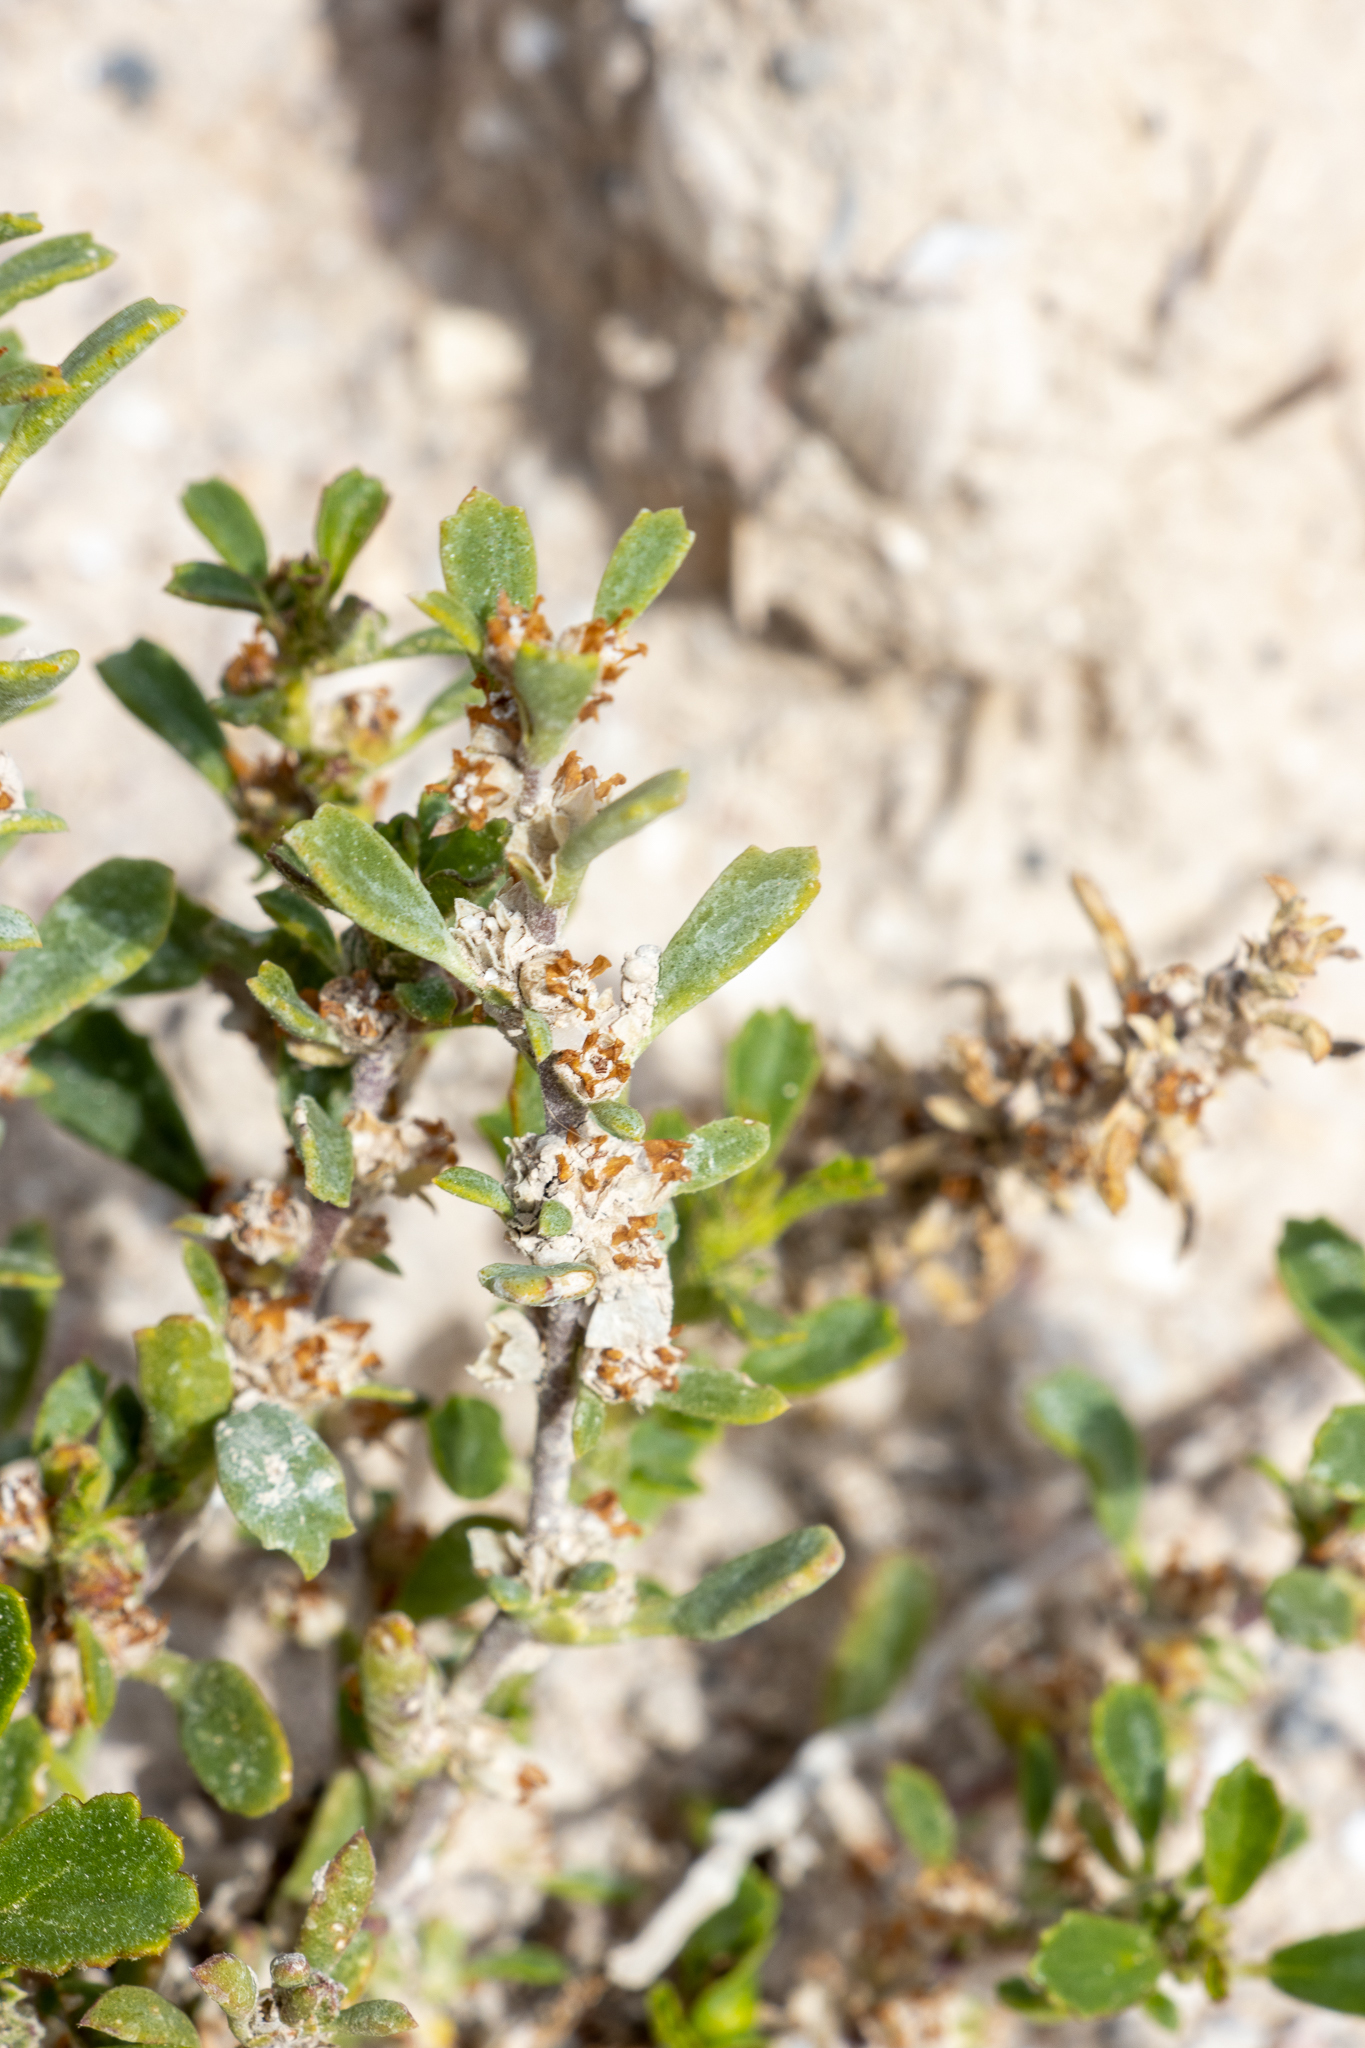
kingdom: Plantae
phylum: Tracheophyta
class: Magnoliopsida
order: Malvales
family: Malvaceae
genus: Lawrencia
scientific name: Lawrencia glomerata
